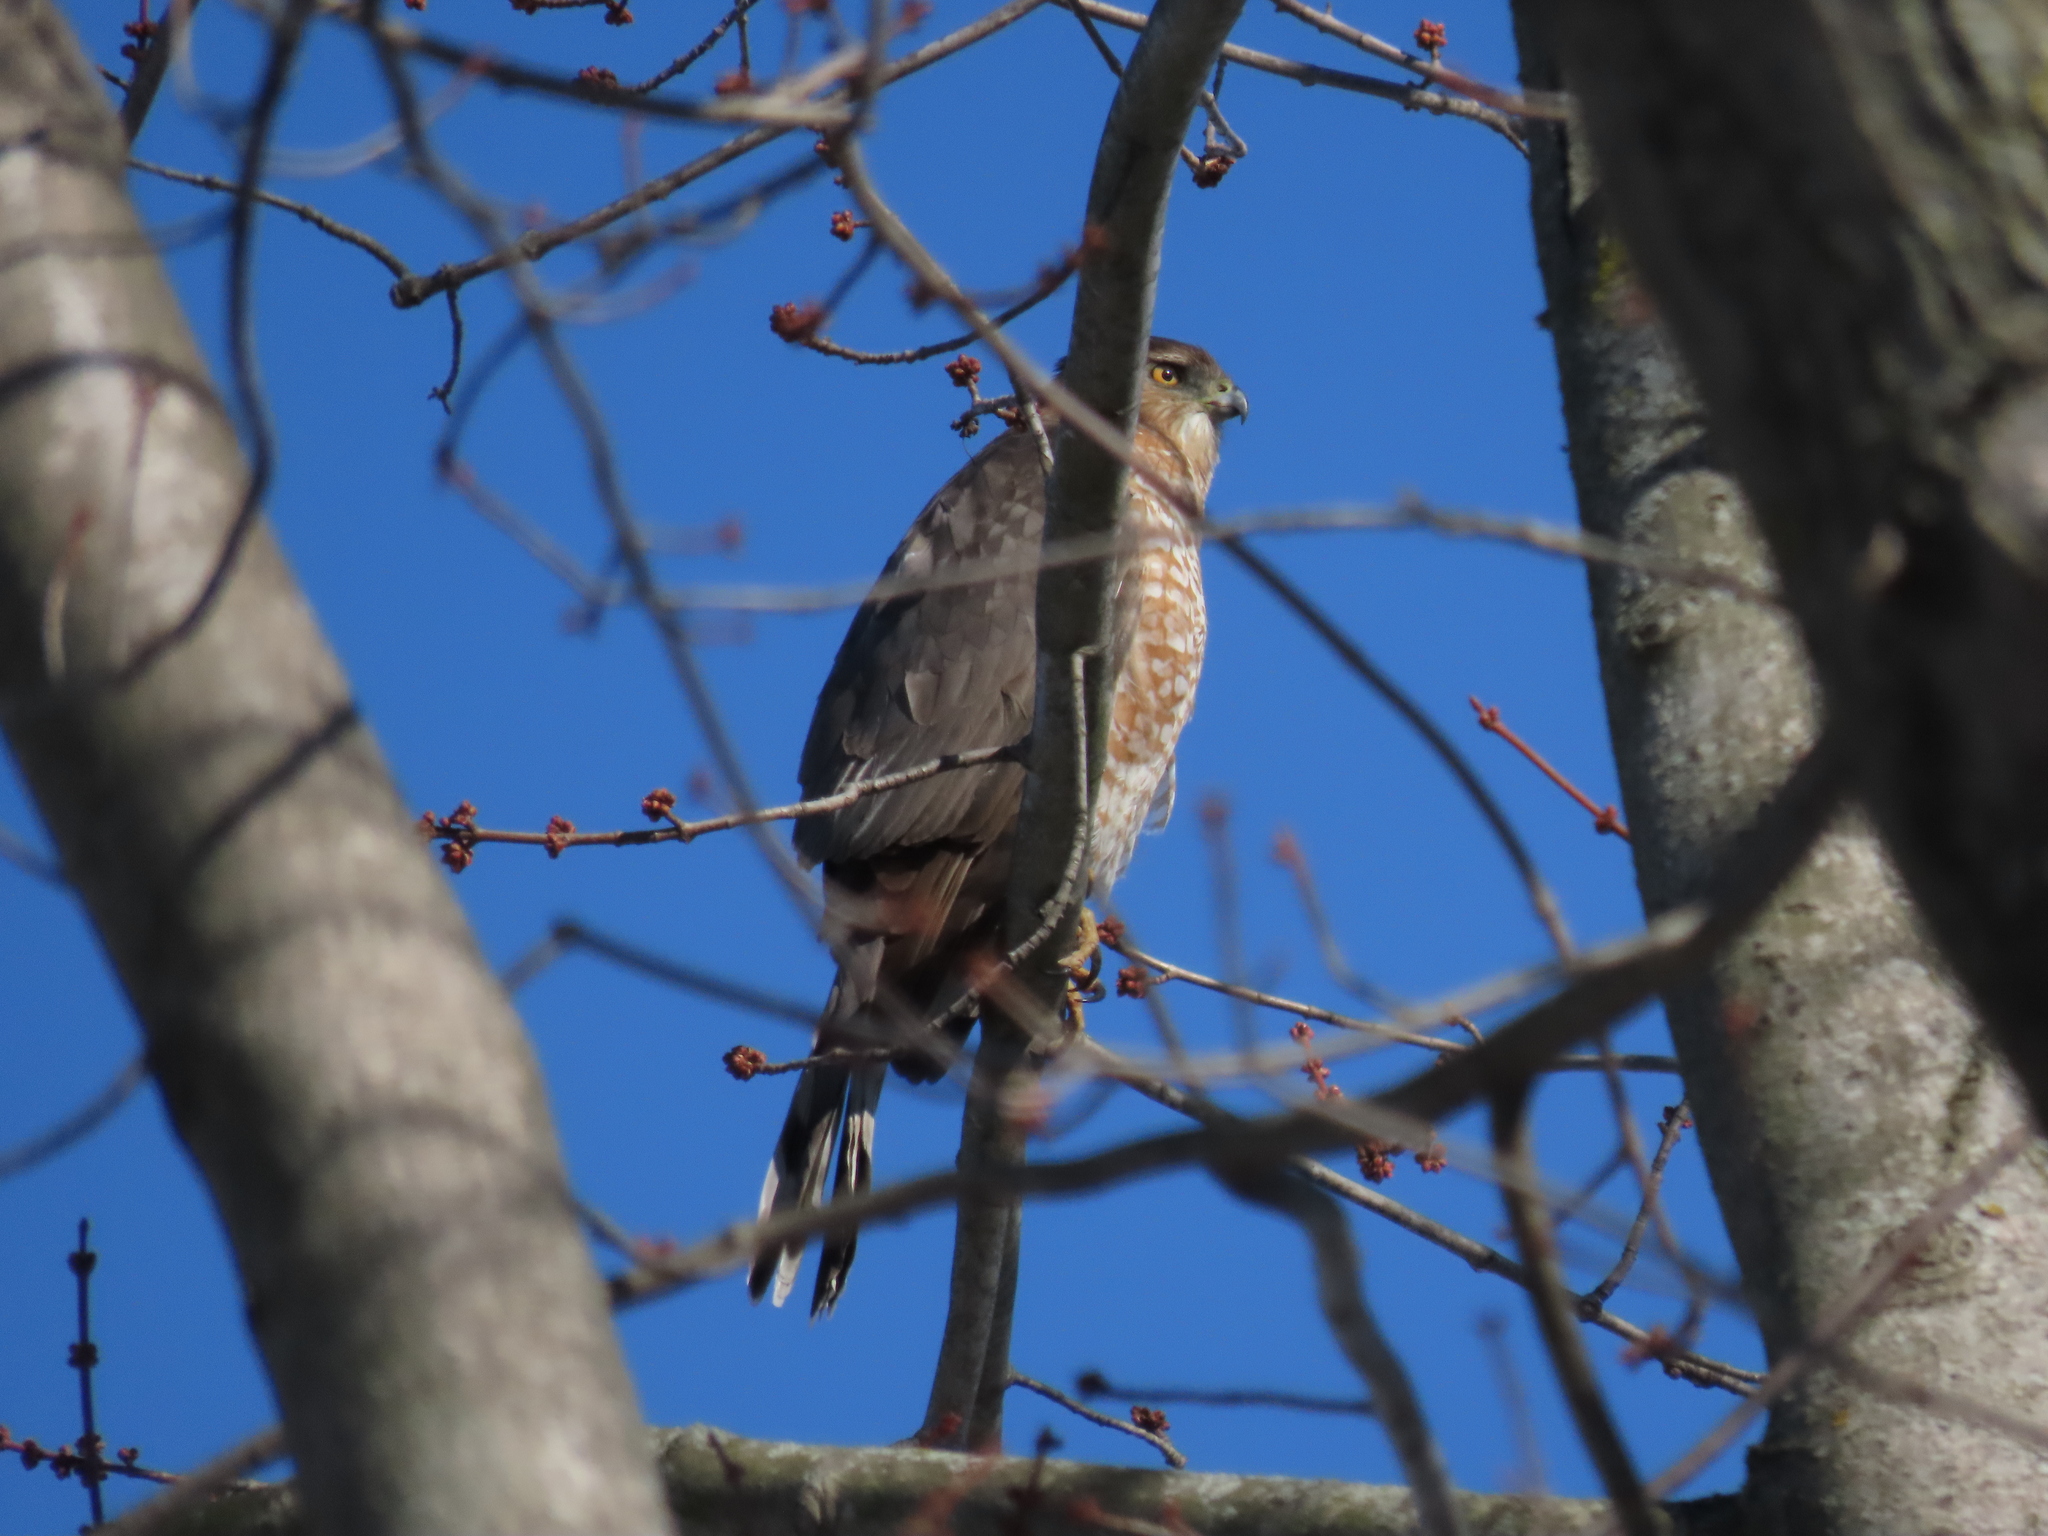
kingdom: Animalia
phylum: Chordata
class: Aves
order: Accipitriformes
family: Accipitridae
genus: Accipiter
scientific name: Accipiter cooperii
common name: Cooper's hawk
